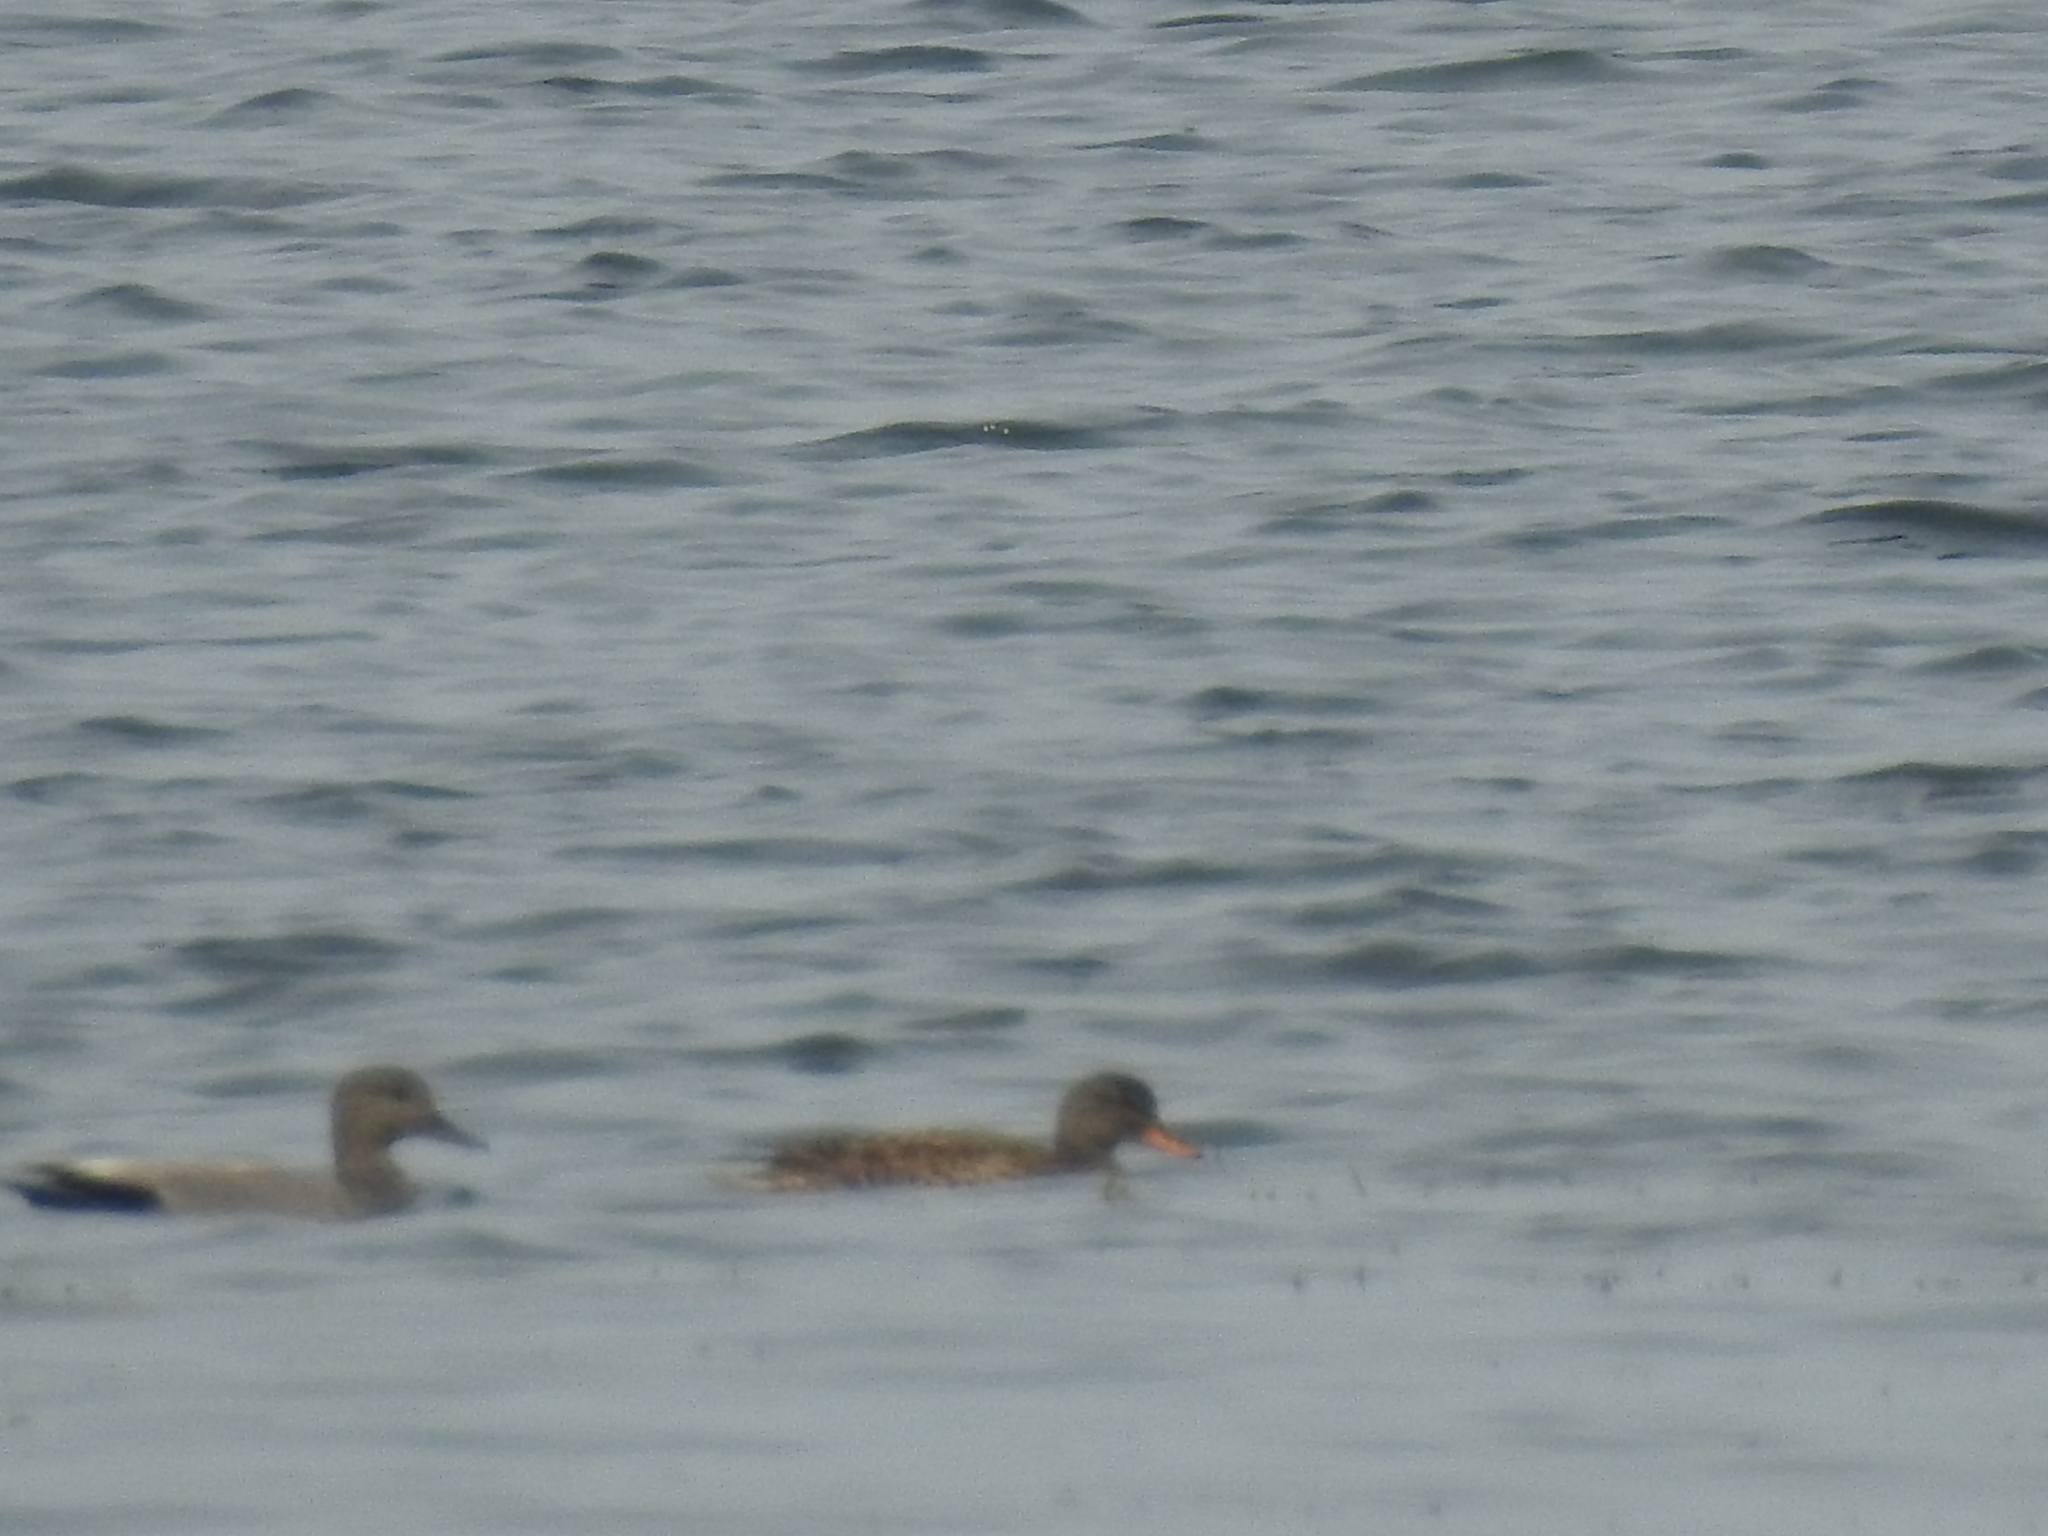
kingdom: Animalia
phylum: Chordata
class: Aves
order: Anseriformes
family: Anatidae
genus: Mareca
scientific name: Mareca strepera
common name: Gadwall
